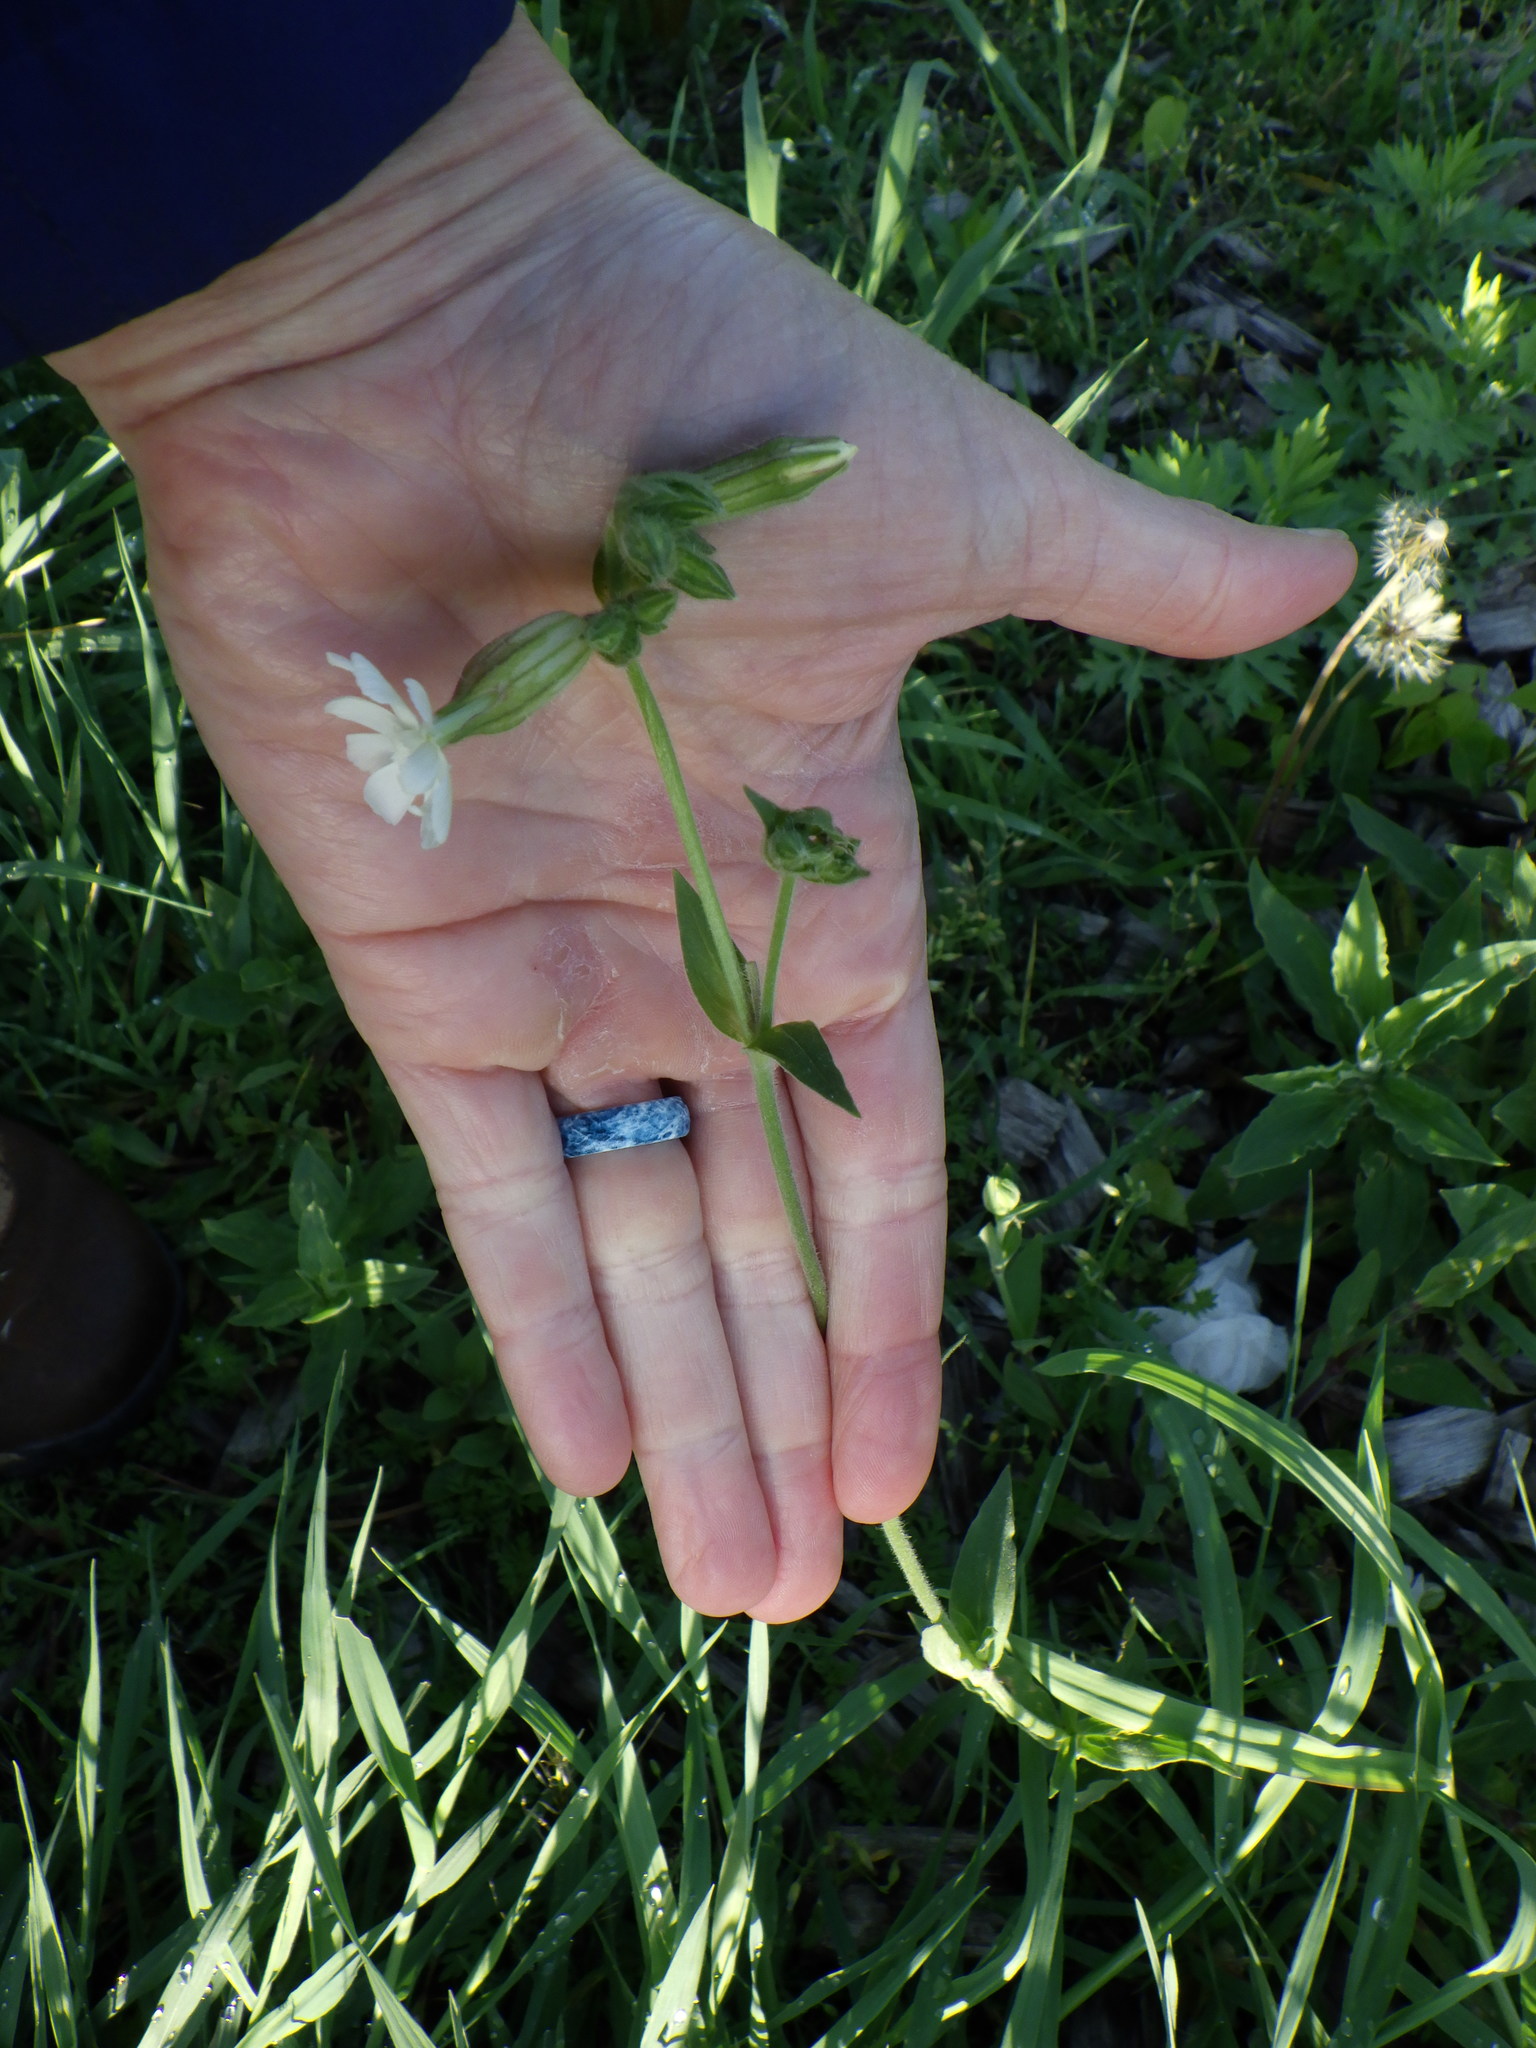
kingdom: Plantae
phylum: Tracheophyta
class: Magnoliopsida
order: Caryophyllales
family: Caryophyllaceae
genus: Silene
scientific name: Silene latifolia
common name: White campion
